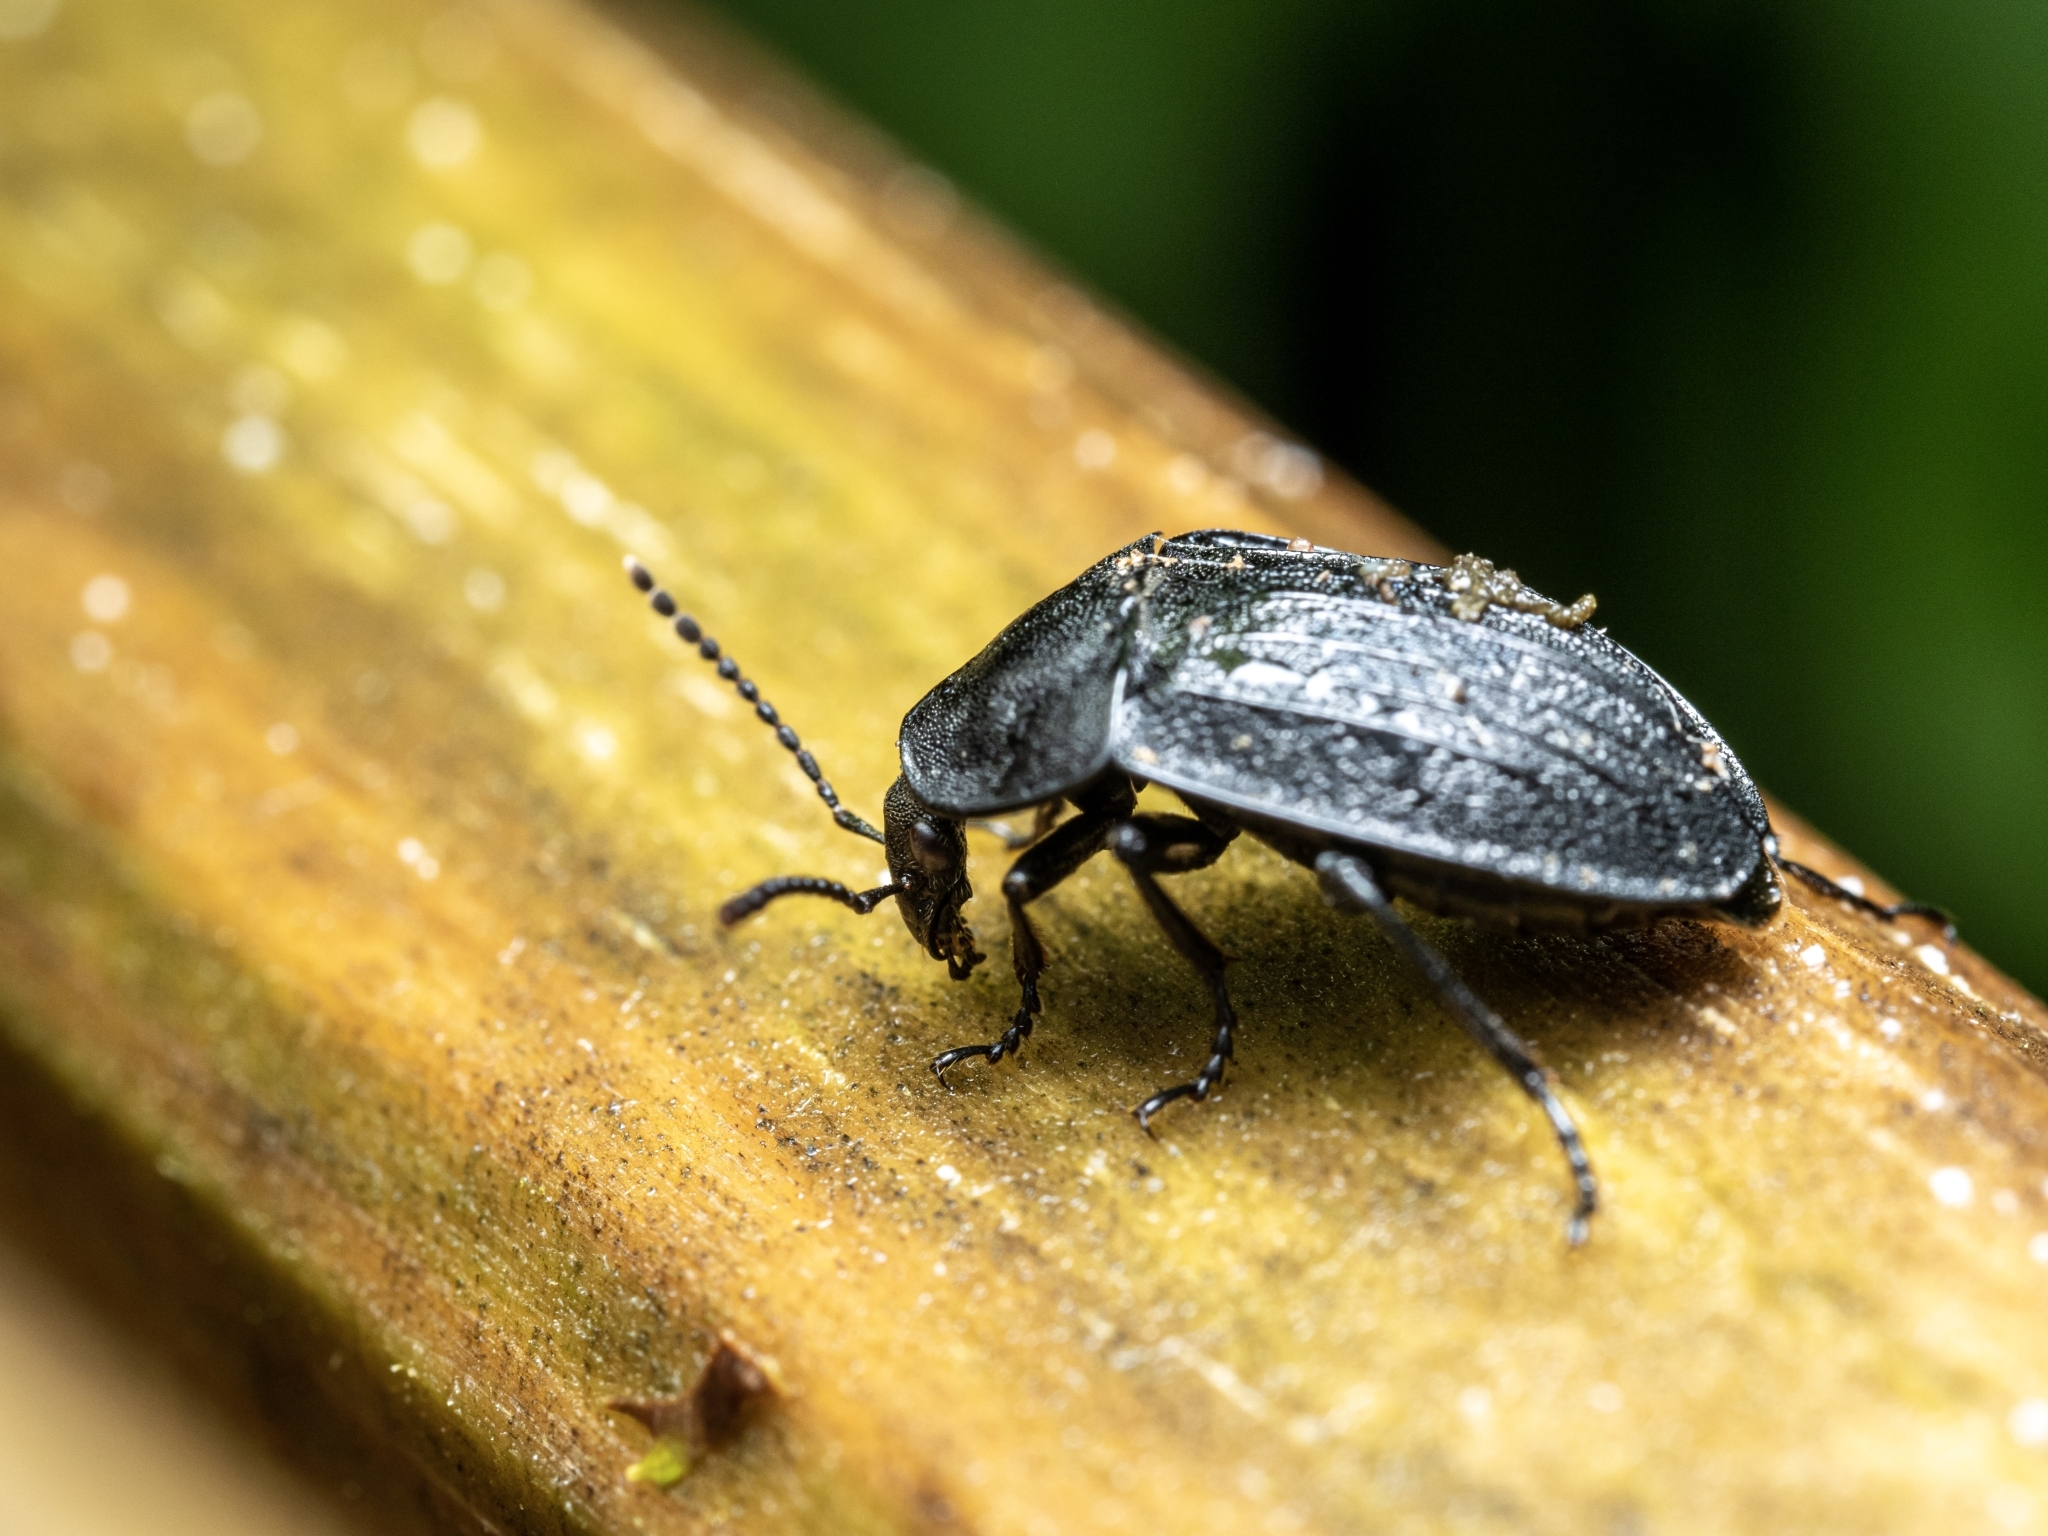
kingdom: Animalia
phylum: Arthropoda
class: Insecta
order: Coleoptera
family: Staphylinidae
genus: Silpha
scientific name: Silpha atrata
